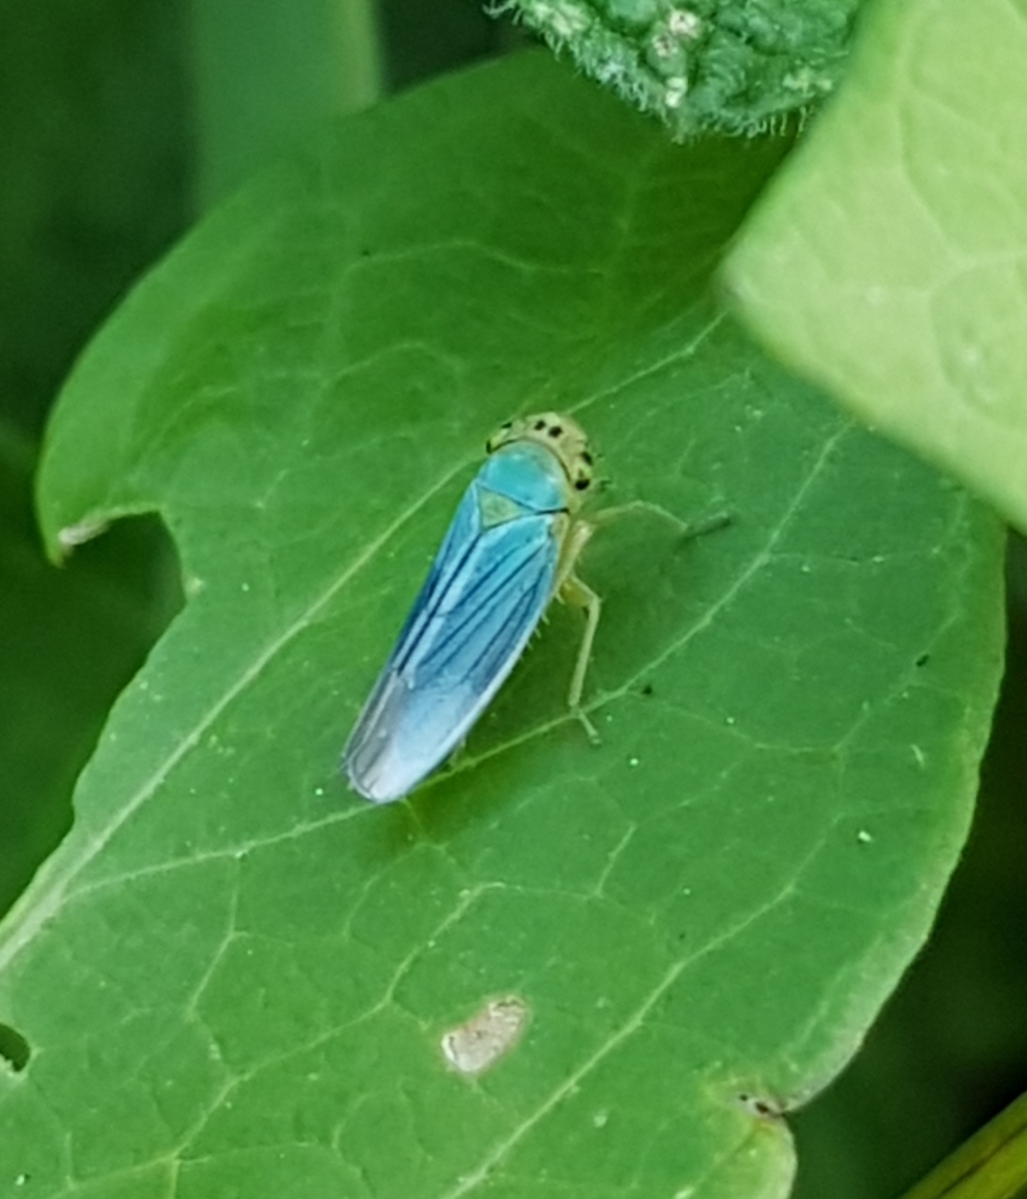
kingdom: Animalia
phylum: Arthropoda
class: Insecta
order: Hemiptera
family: Cicadellidae
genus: Cicadella
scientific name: Cicadella viridis
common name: Leafhopper
